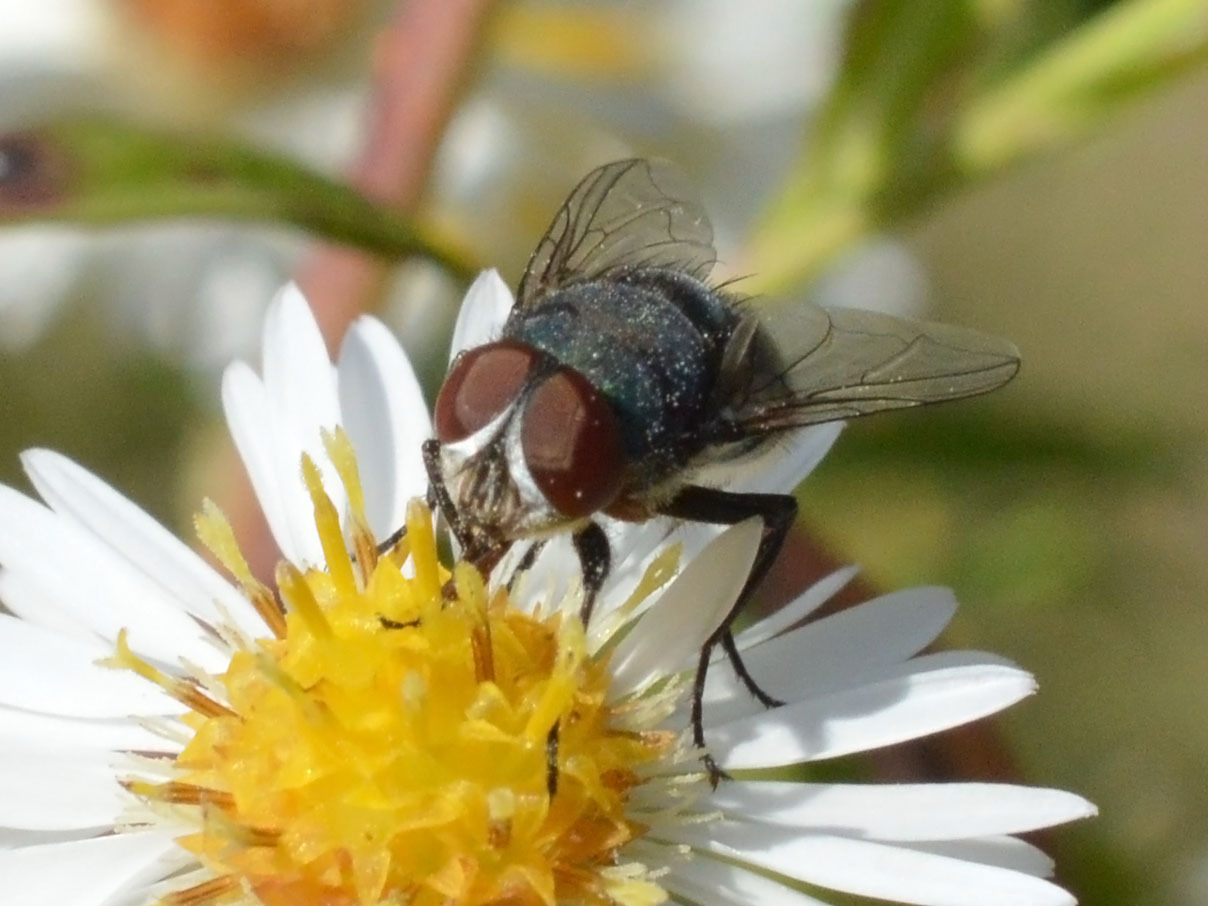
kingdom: Animalia
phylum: Arthropoda
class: Insecta
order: Diptera
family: Calliphoridae
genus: Chrysomya
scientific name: Chrysomya albiceps
